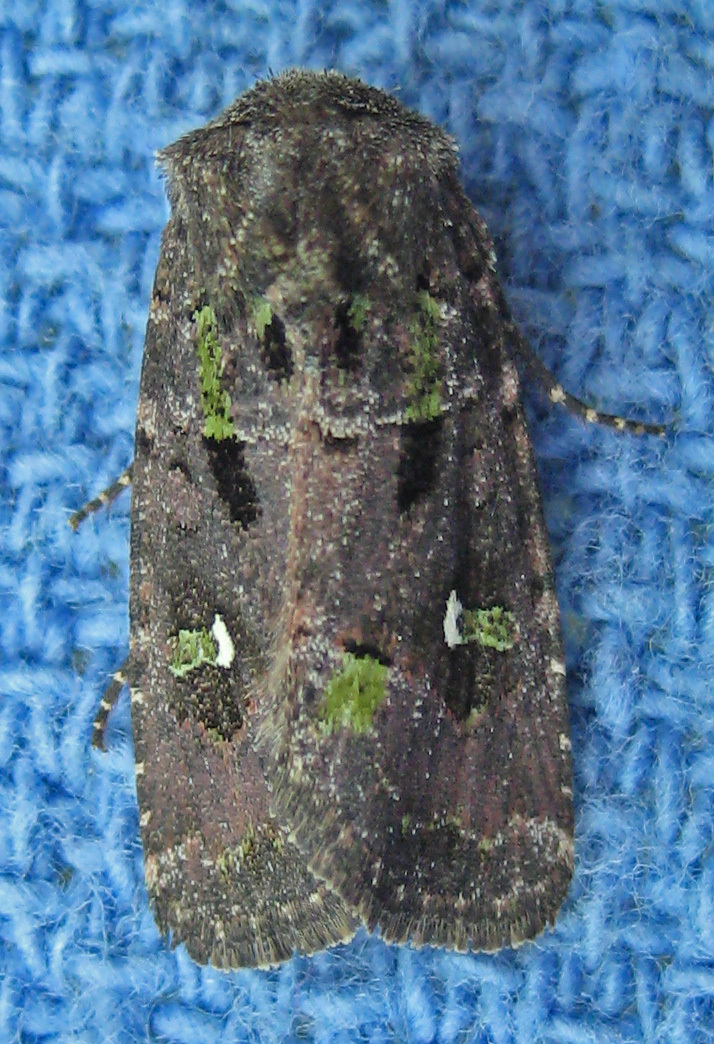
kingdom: Animalia
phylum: Arthropoda
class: Insecta
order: Lepidoptera
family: Noctuidae
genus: Lacinipolia
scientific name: Lacinipolia renigera
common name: Kidney-spotted minor
